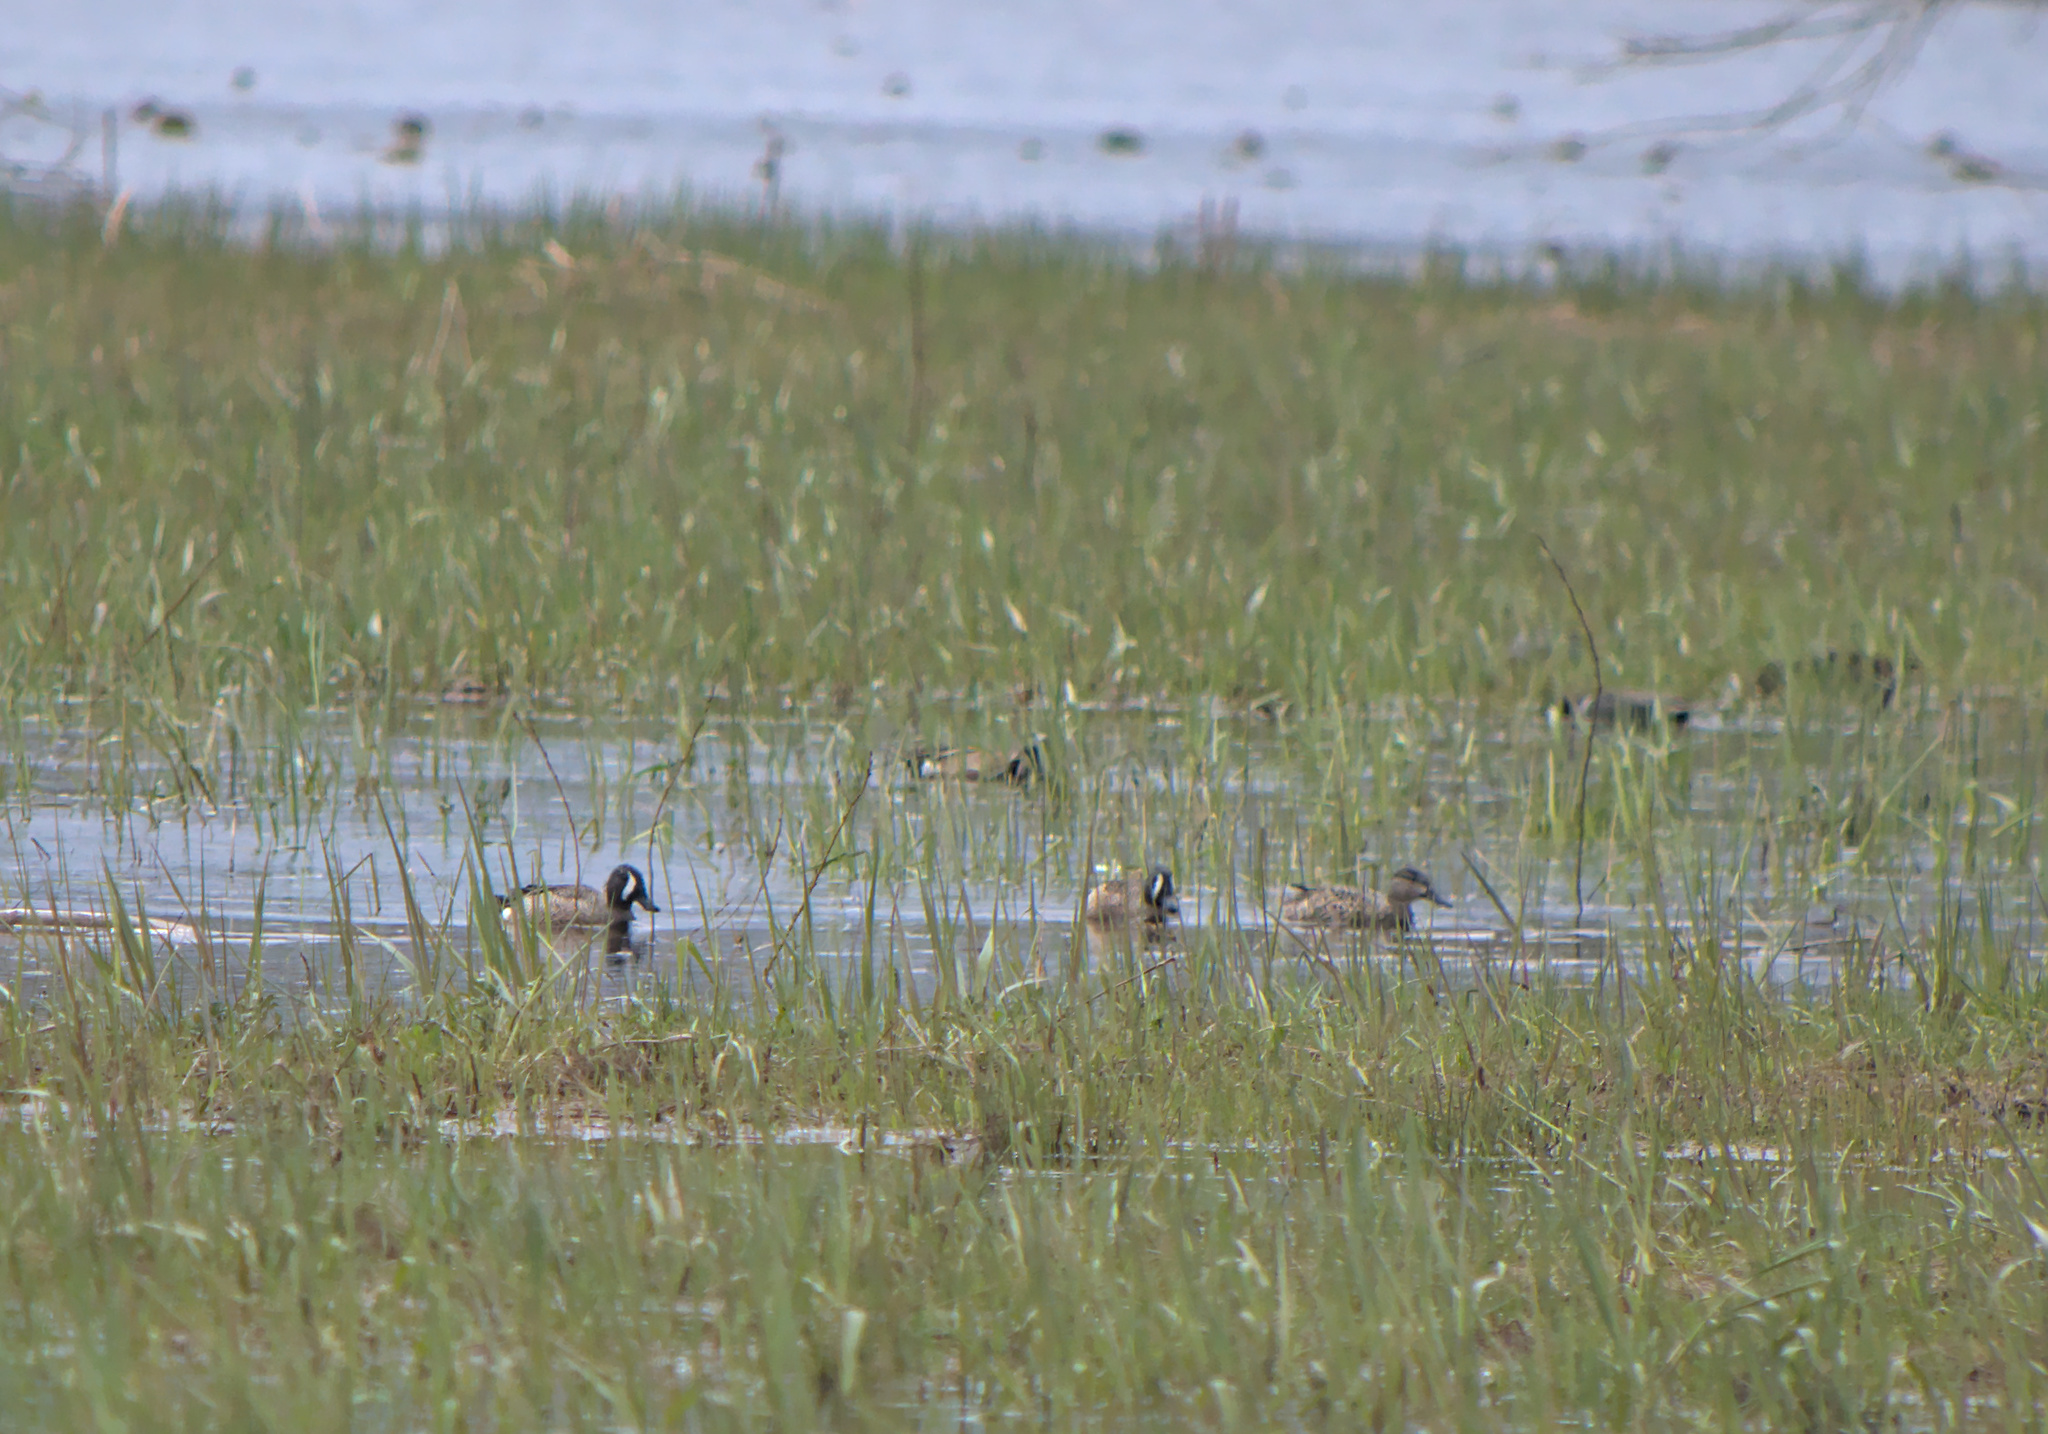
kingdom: Animalia
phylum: Chordata
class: Aves
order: Anseriformes
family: Anatidae
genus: Spatula
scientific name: Spatula discors
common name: Blue-winged teal
